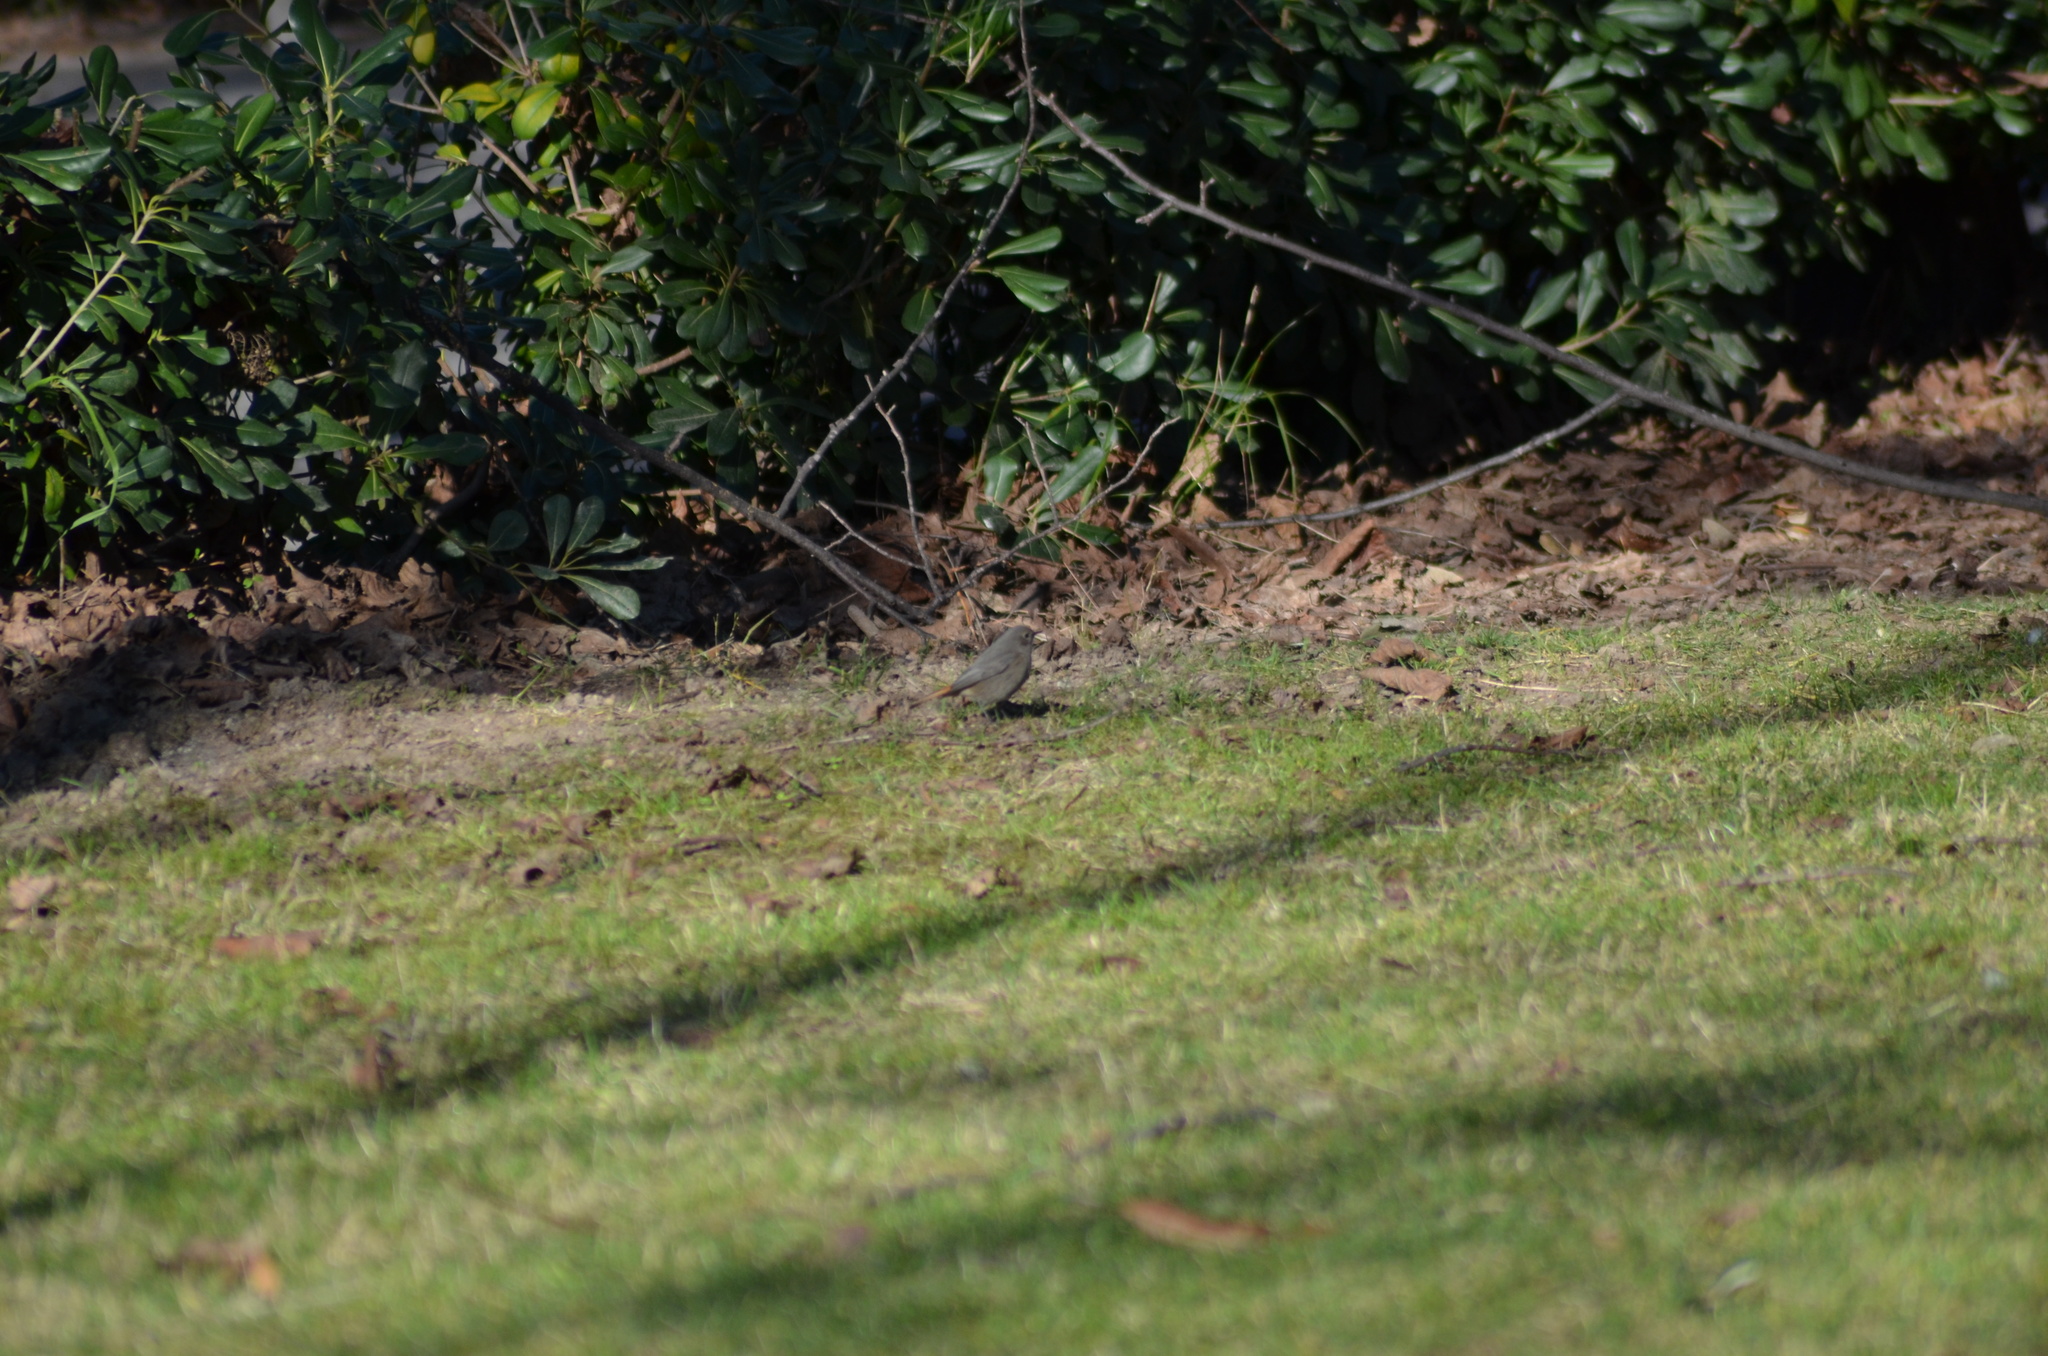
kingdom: Animalia
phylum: Chordata
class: Aves
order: Passeriformes
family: Muscicapidae
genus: Phoenicurus
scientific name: Phoenicurus ochruros
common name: Black redstart
